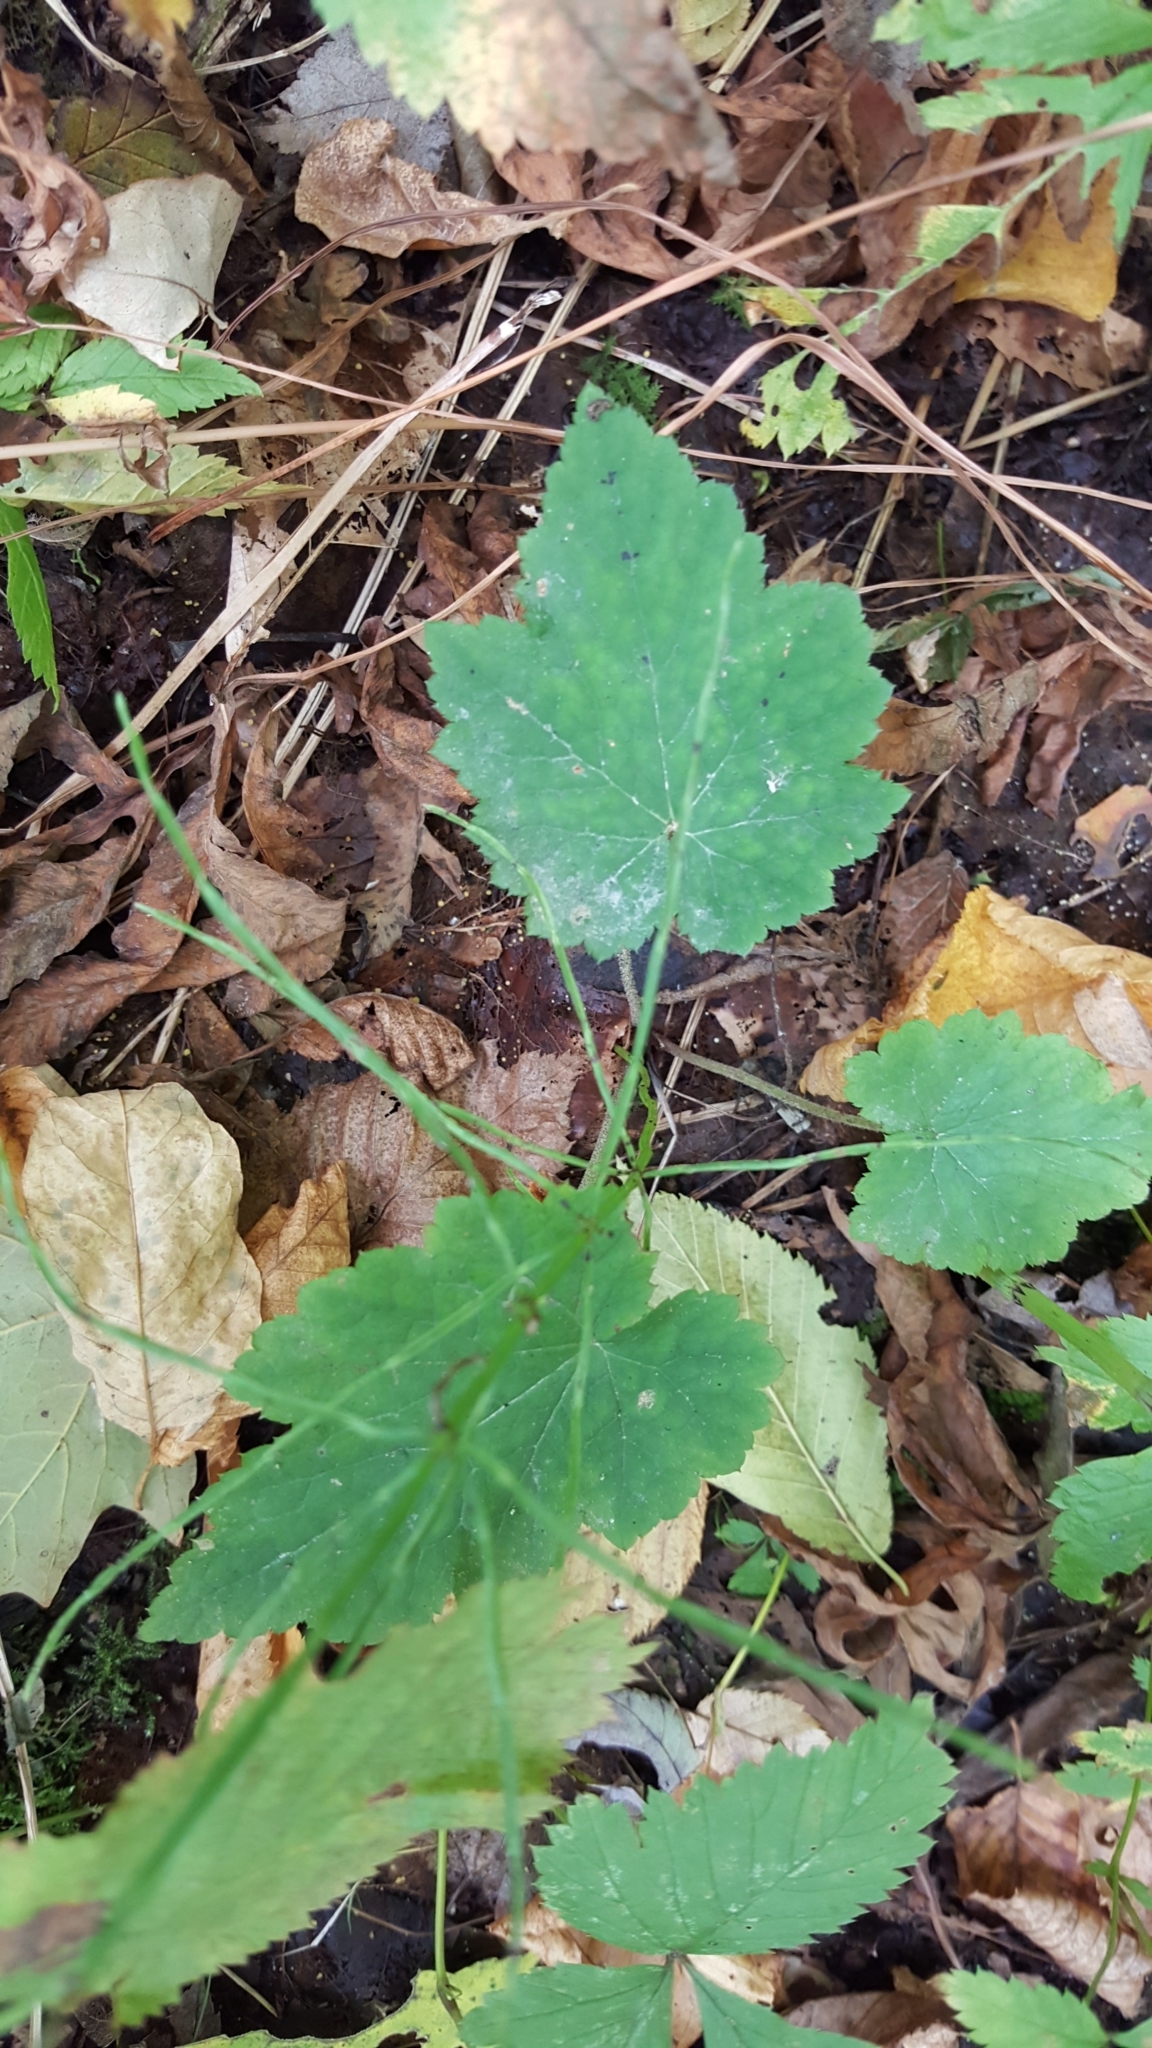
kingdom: Plantae
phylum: Tracheophyta
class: Magnoliopsida
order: Saxifragales
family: Saxifragaceae
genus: Tiarella
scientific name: Tiarella stolonifera
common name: Stoloniferous foamflower
